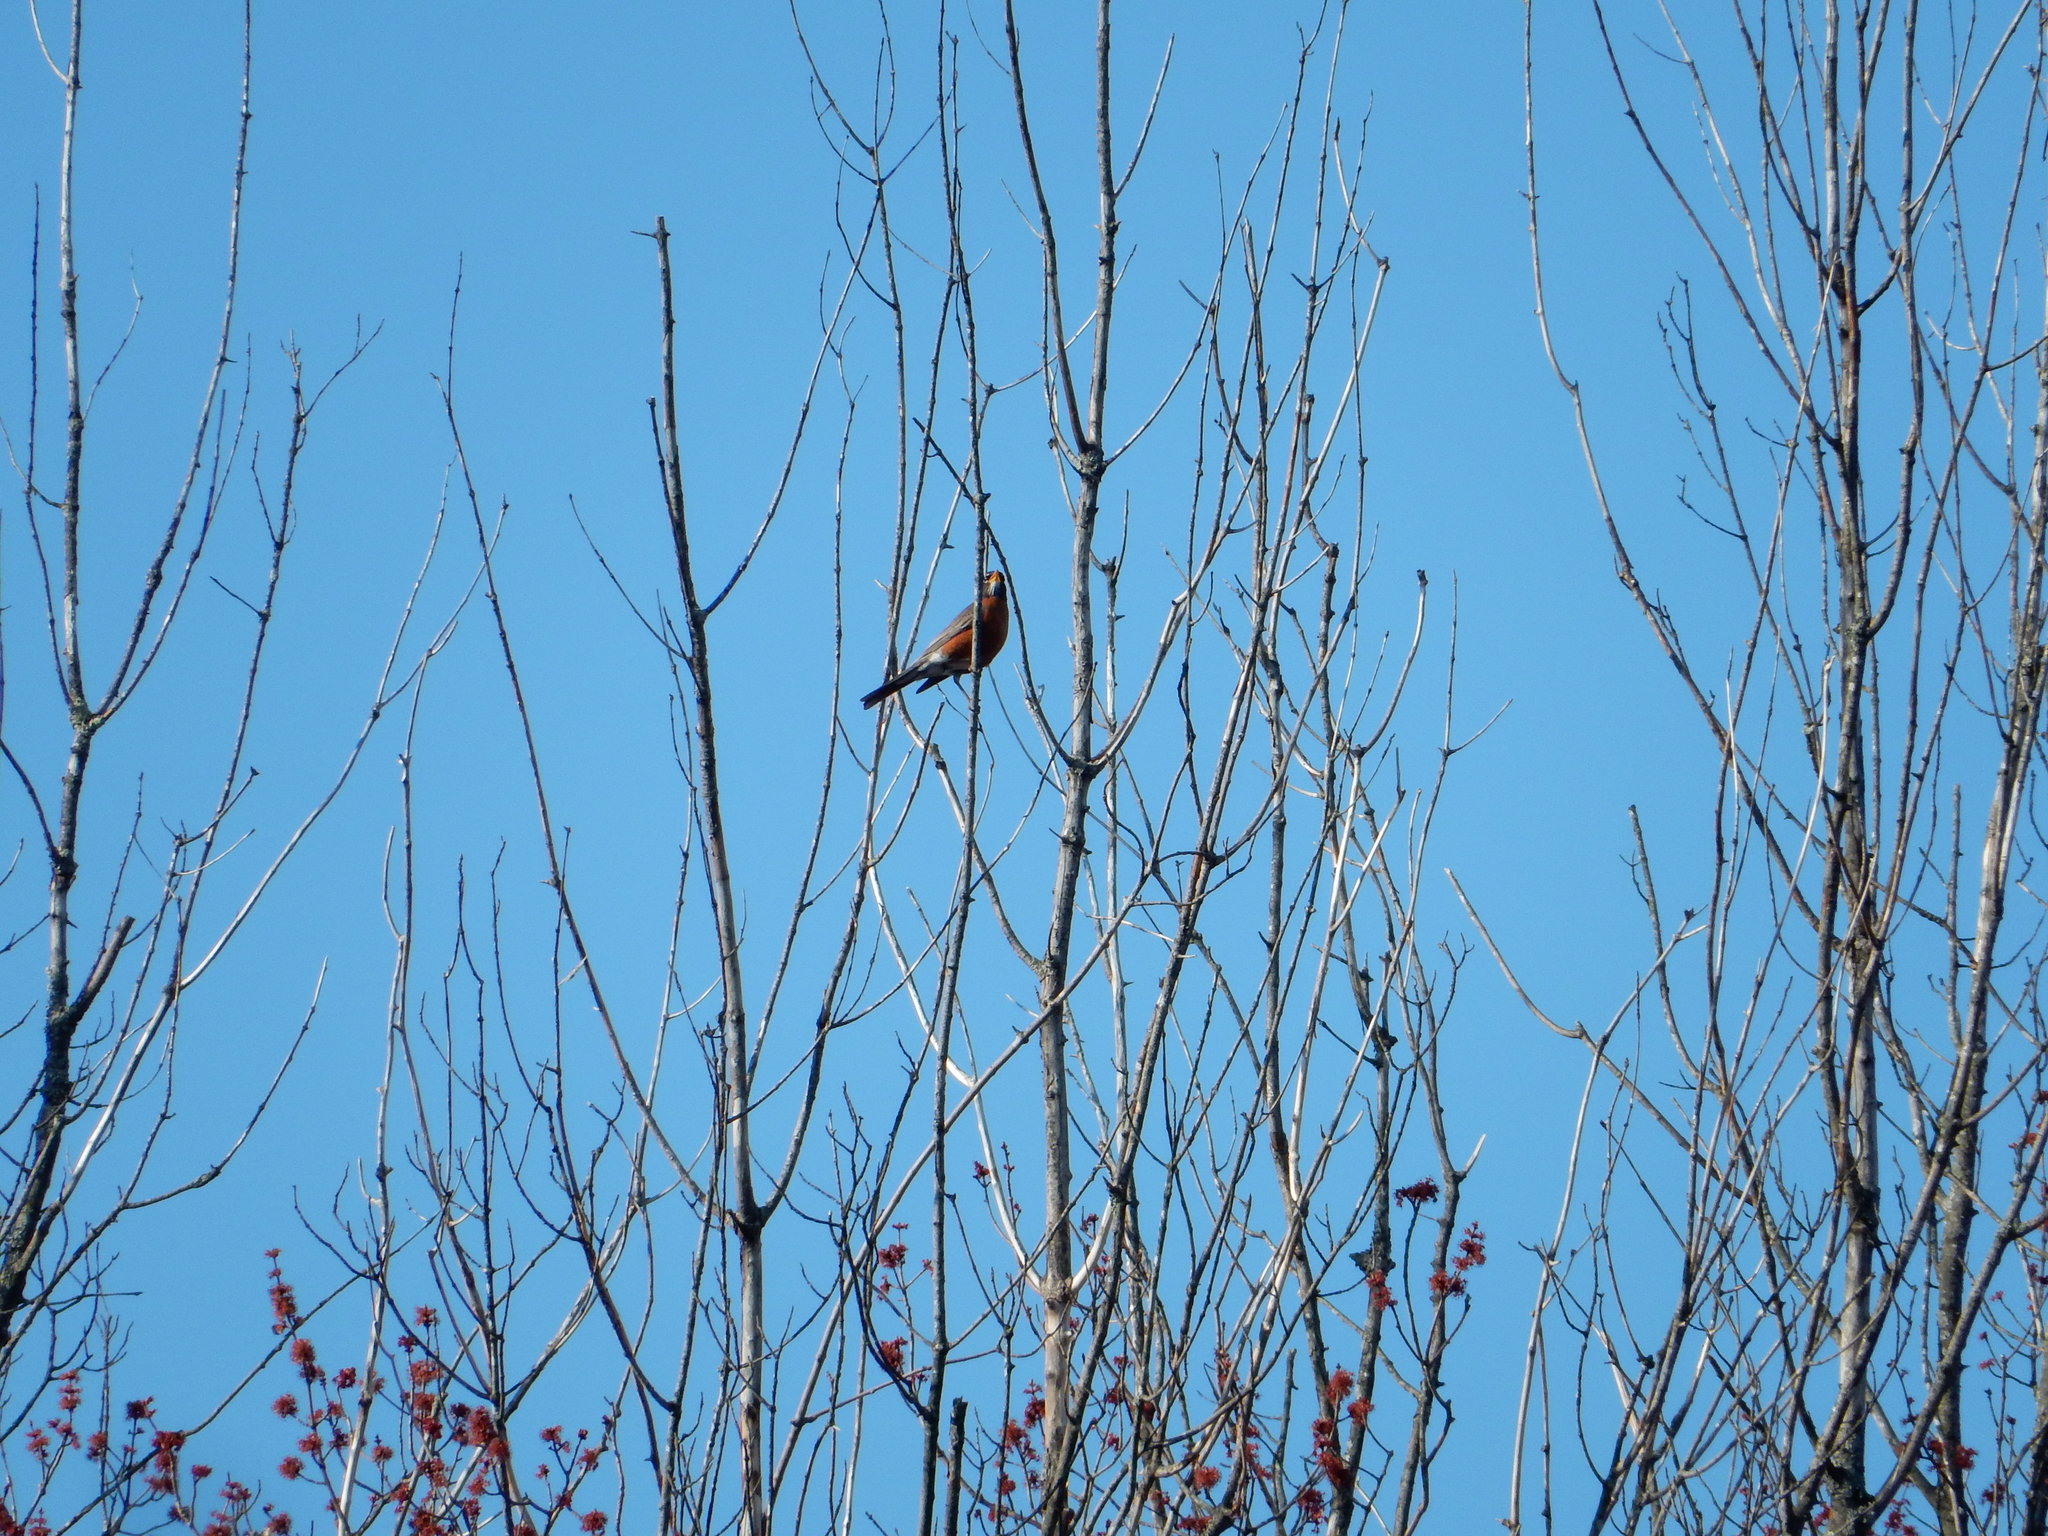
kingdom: Animalia
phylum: Chordata
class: Aves
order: Passeriformes
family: Turdidae
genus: Turdus
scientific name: Turdus migratorius
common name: American robin
